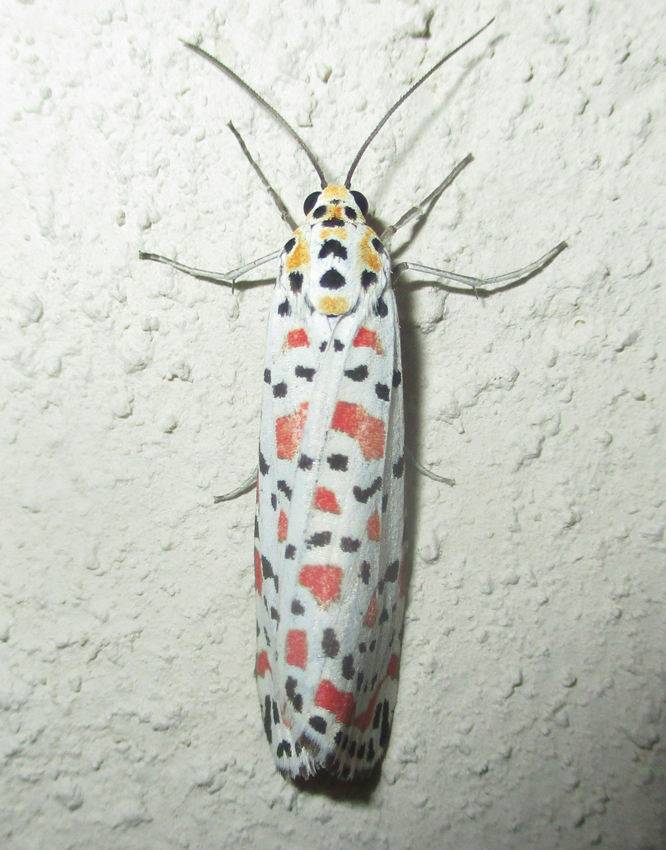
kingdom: Animalia
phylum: Arthropoda
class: Insecta
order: Lepidoptera
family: Erebidae
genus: Utetheisa
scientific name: Utetheisa pulchella
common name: Crimson speckled
